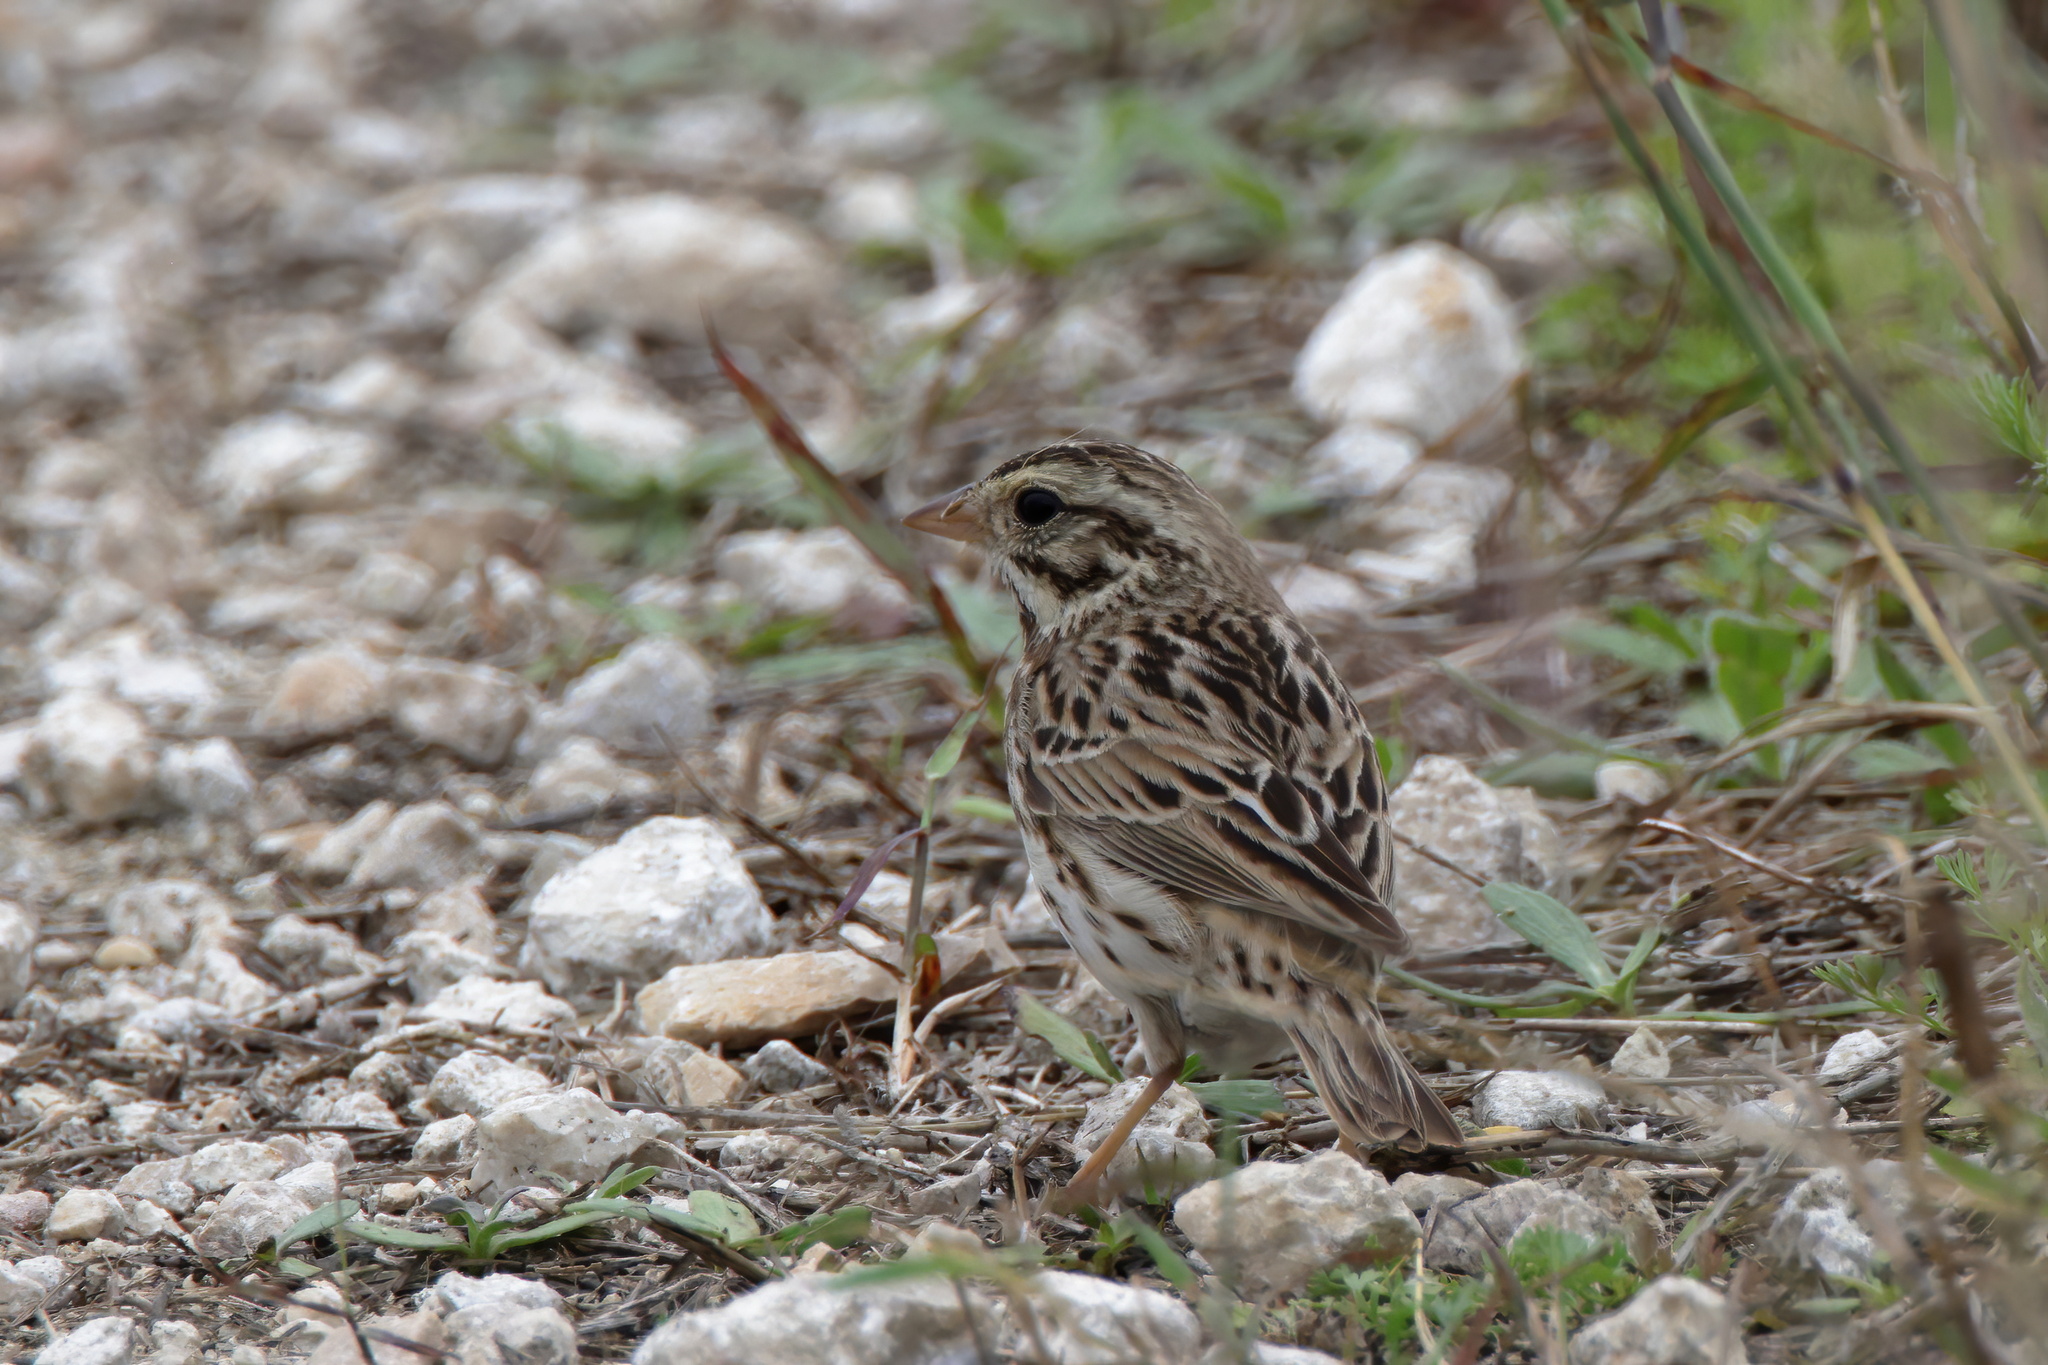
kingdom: Animalia
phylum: Chordata
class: Aves
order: Passeriformes
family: Passerellidae
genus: Passerculus
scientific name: Passerculus sandwichensis
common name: Savannah sparrow
